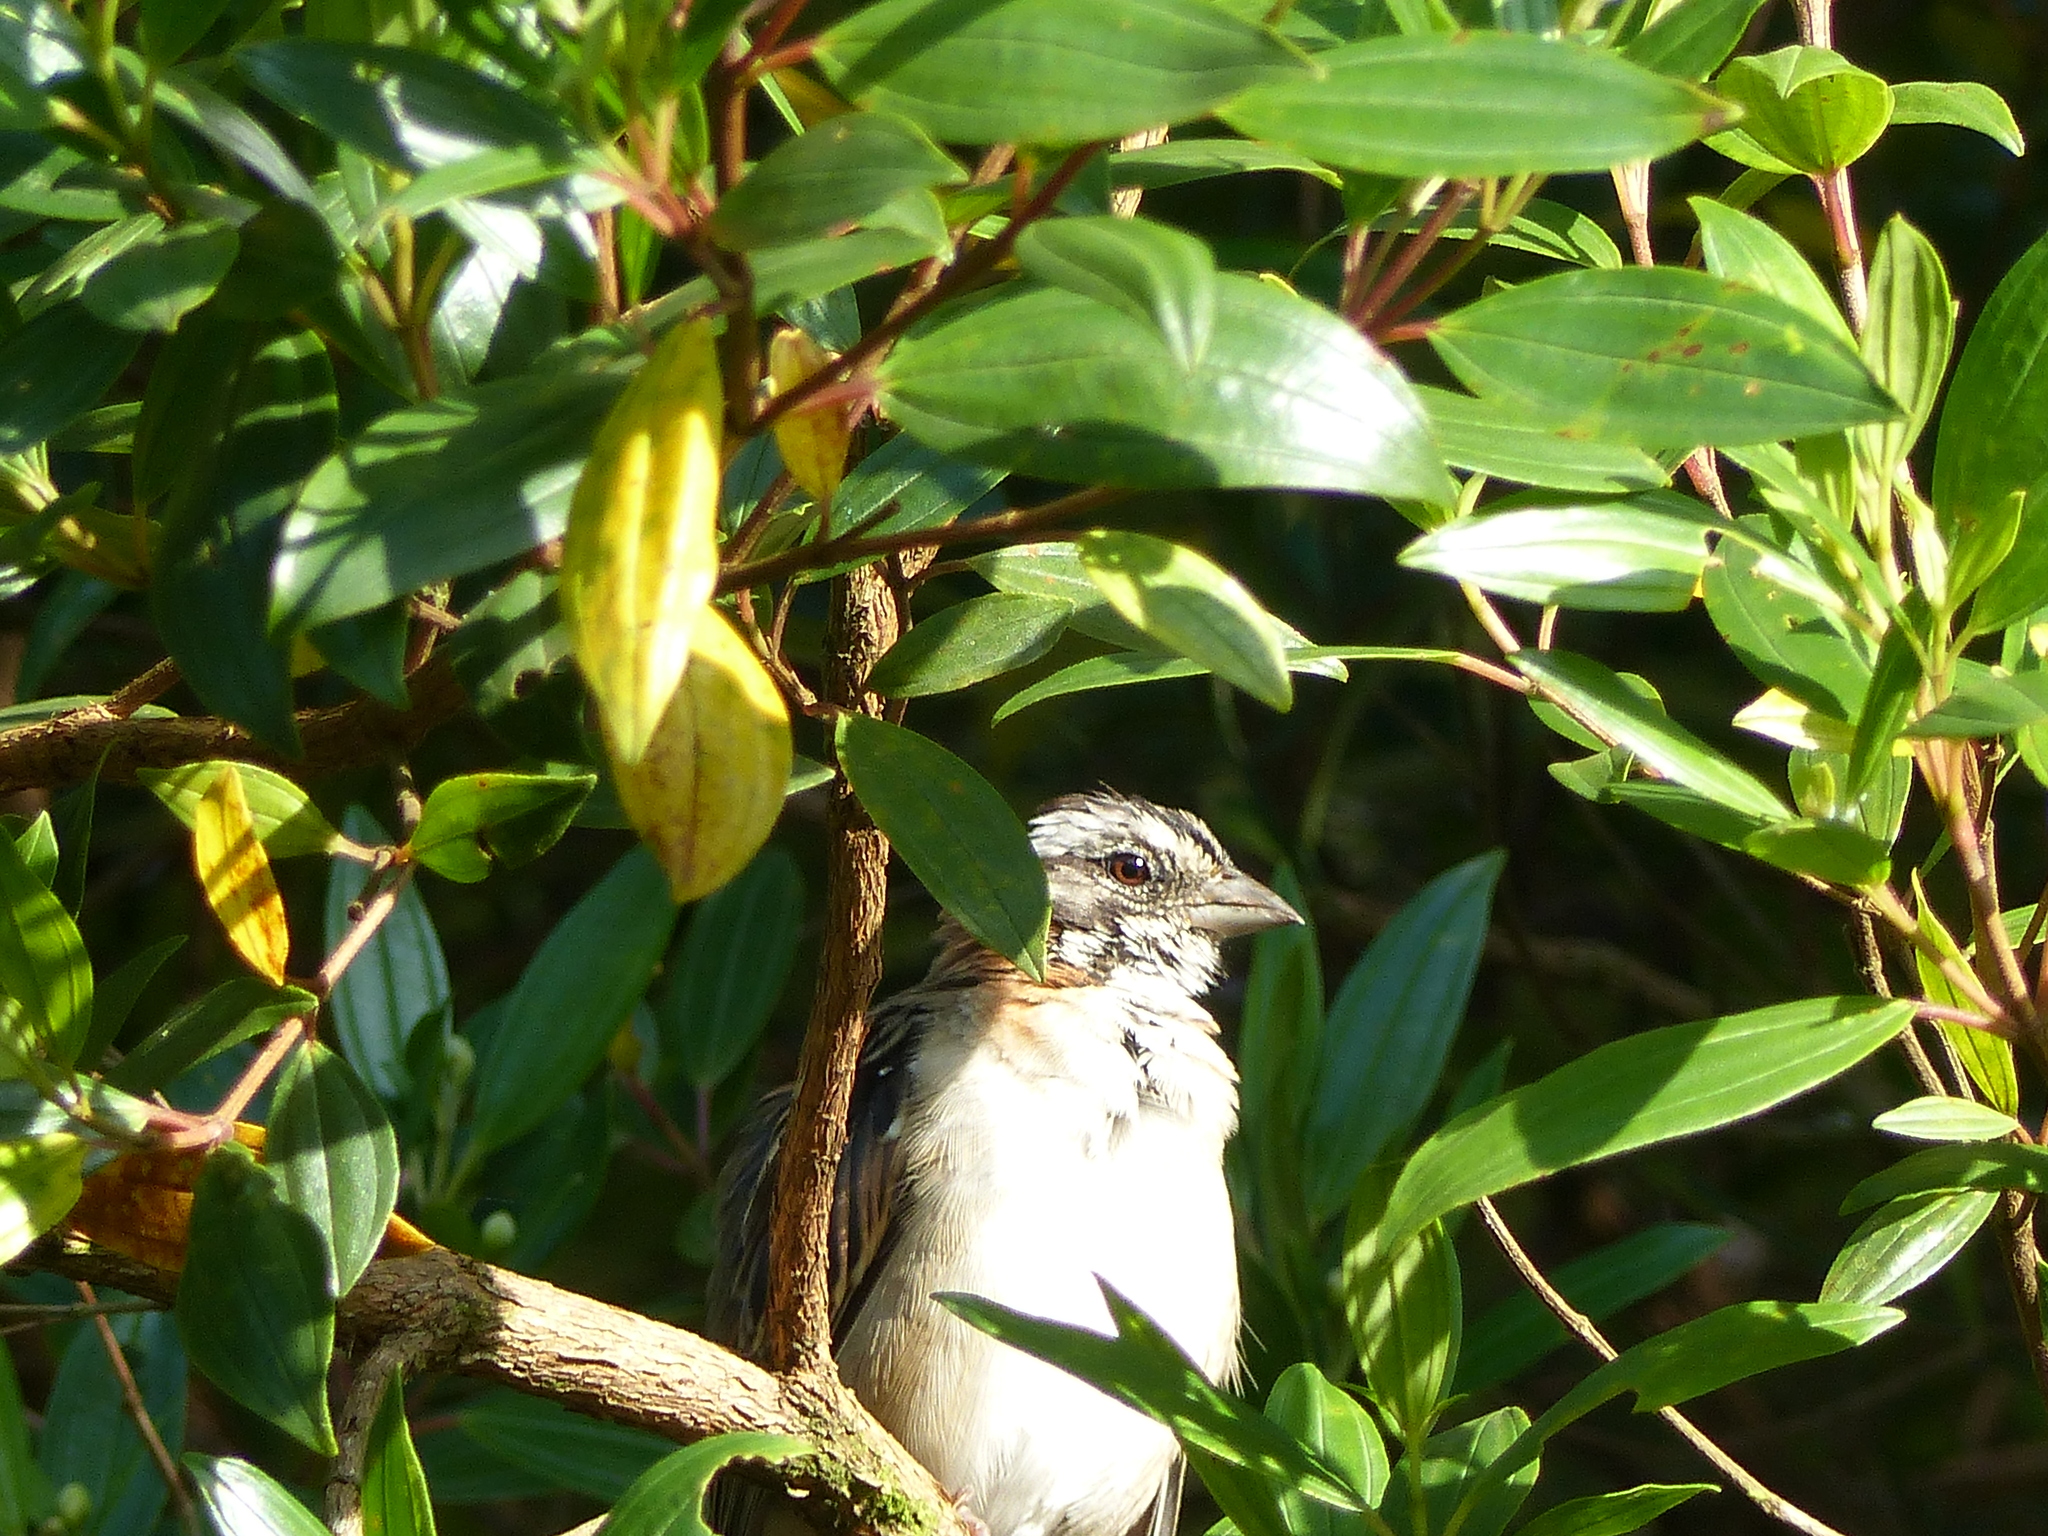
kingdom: Animalia
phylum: Chordata
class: Aves
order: Passeriformes
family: Passerellidae
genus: Zonotrichia
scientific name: Zonotrichia capensis
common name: Rufous-collared sparrow
